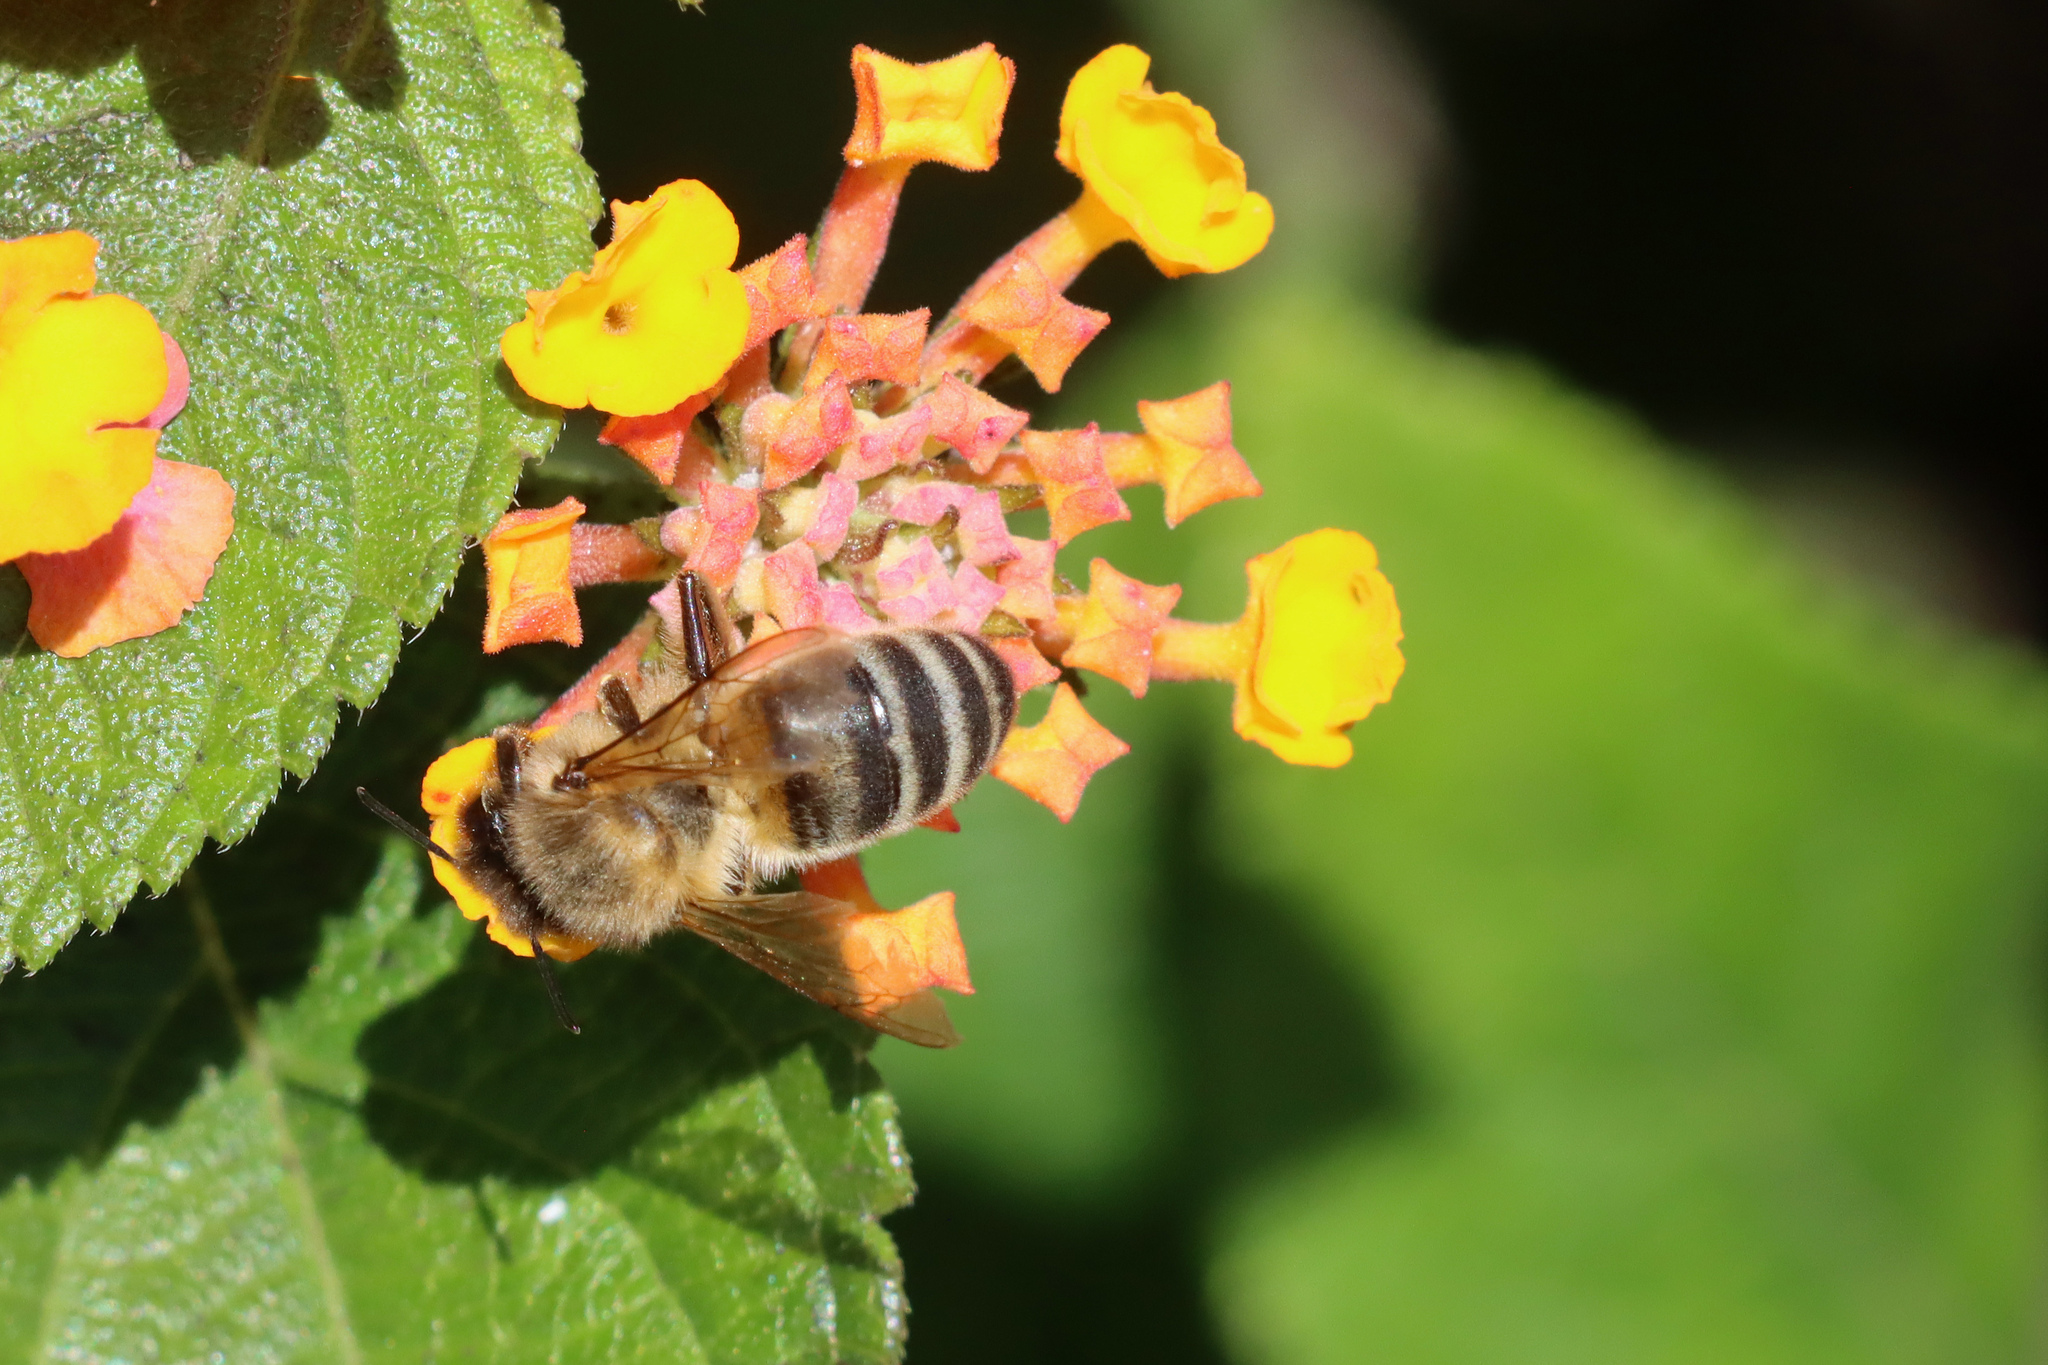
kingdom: Animalia
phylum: Arthropoda
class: Insecta
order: Hymenoptera
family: Apidae
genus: Apis
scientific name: Apis mellifera
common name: Honey bee
